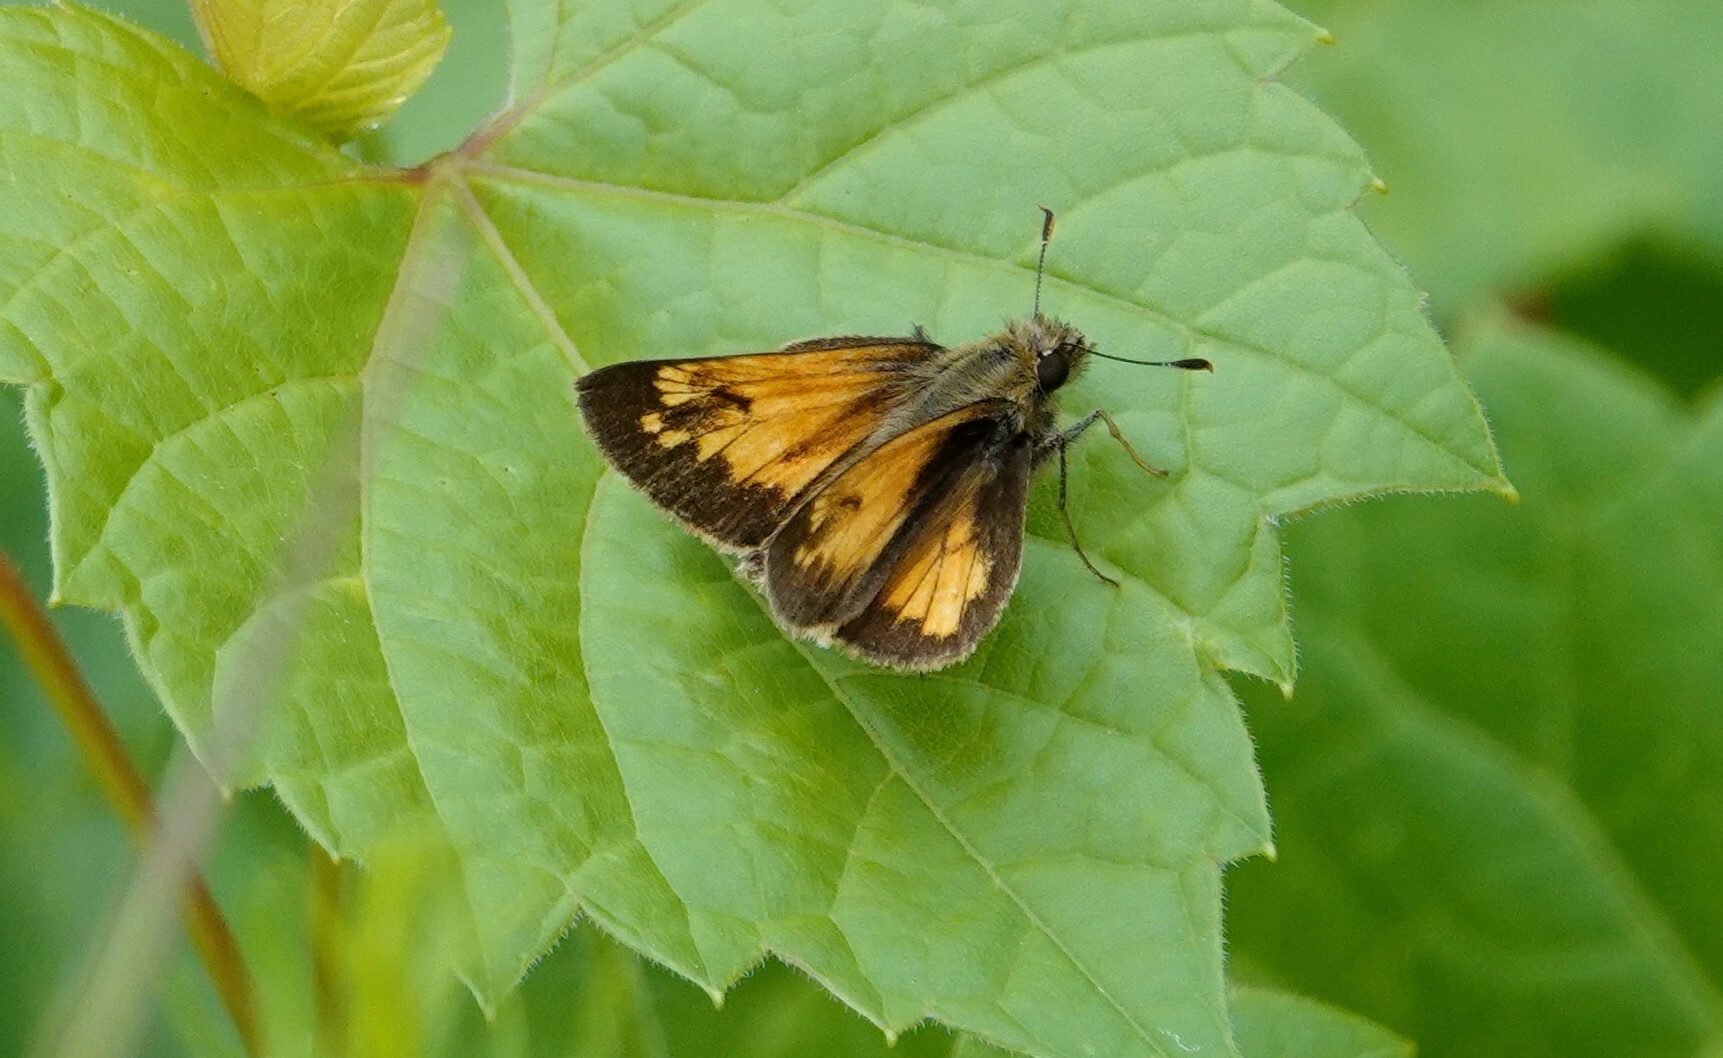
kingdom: Animalia
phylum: Arthropoda
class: Insecta
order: Lepidoptera
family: Hesperiidae
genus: Lon
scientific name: Lon hobomok
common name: Hobomok skipper
